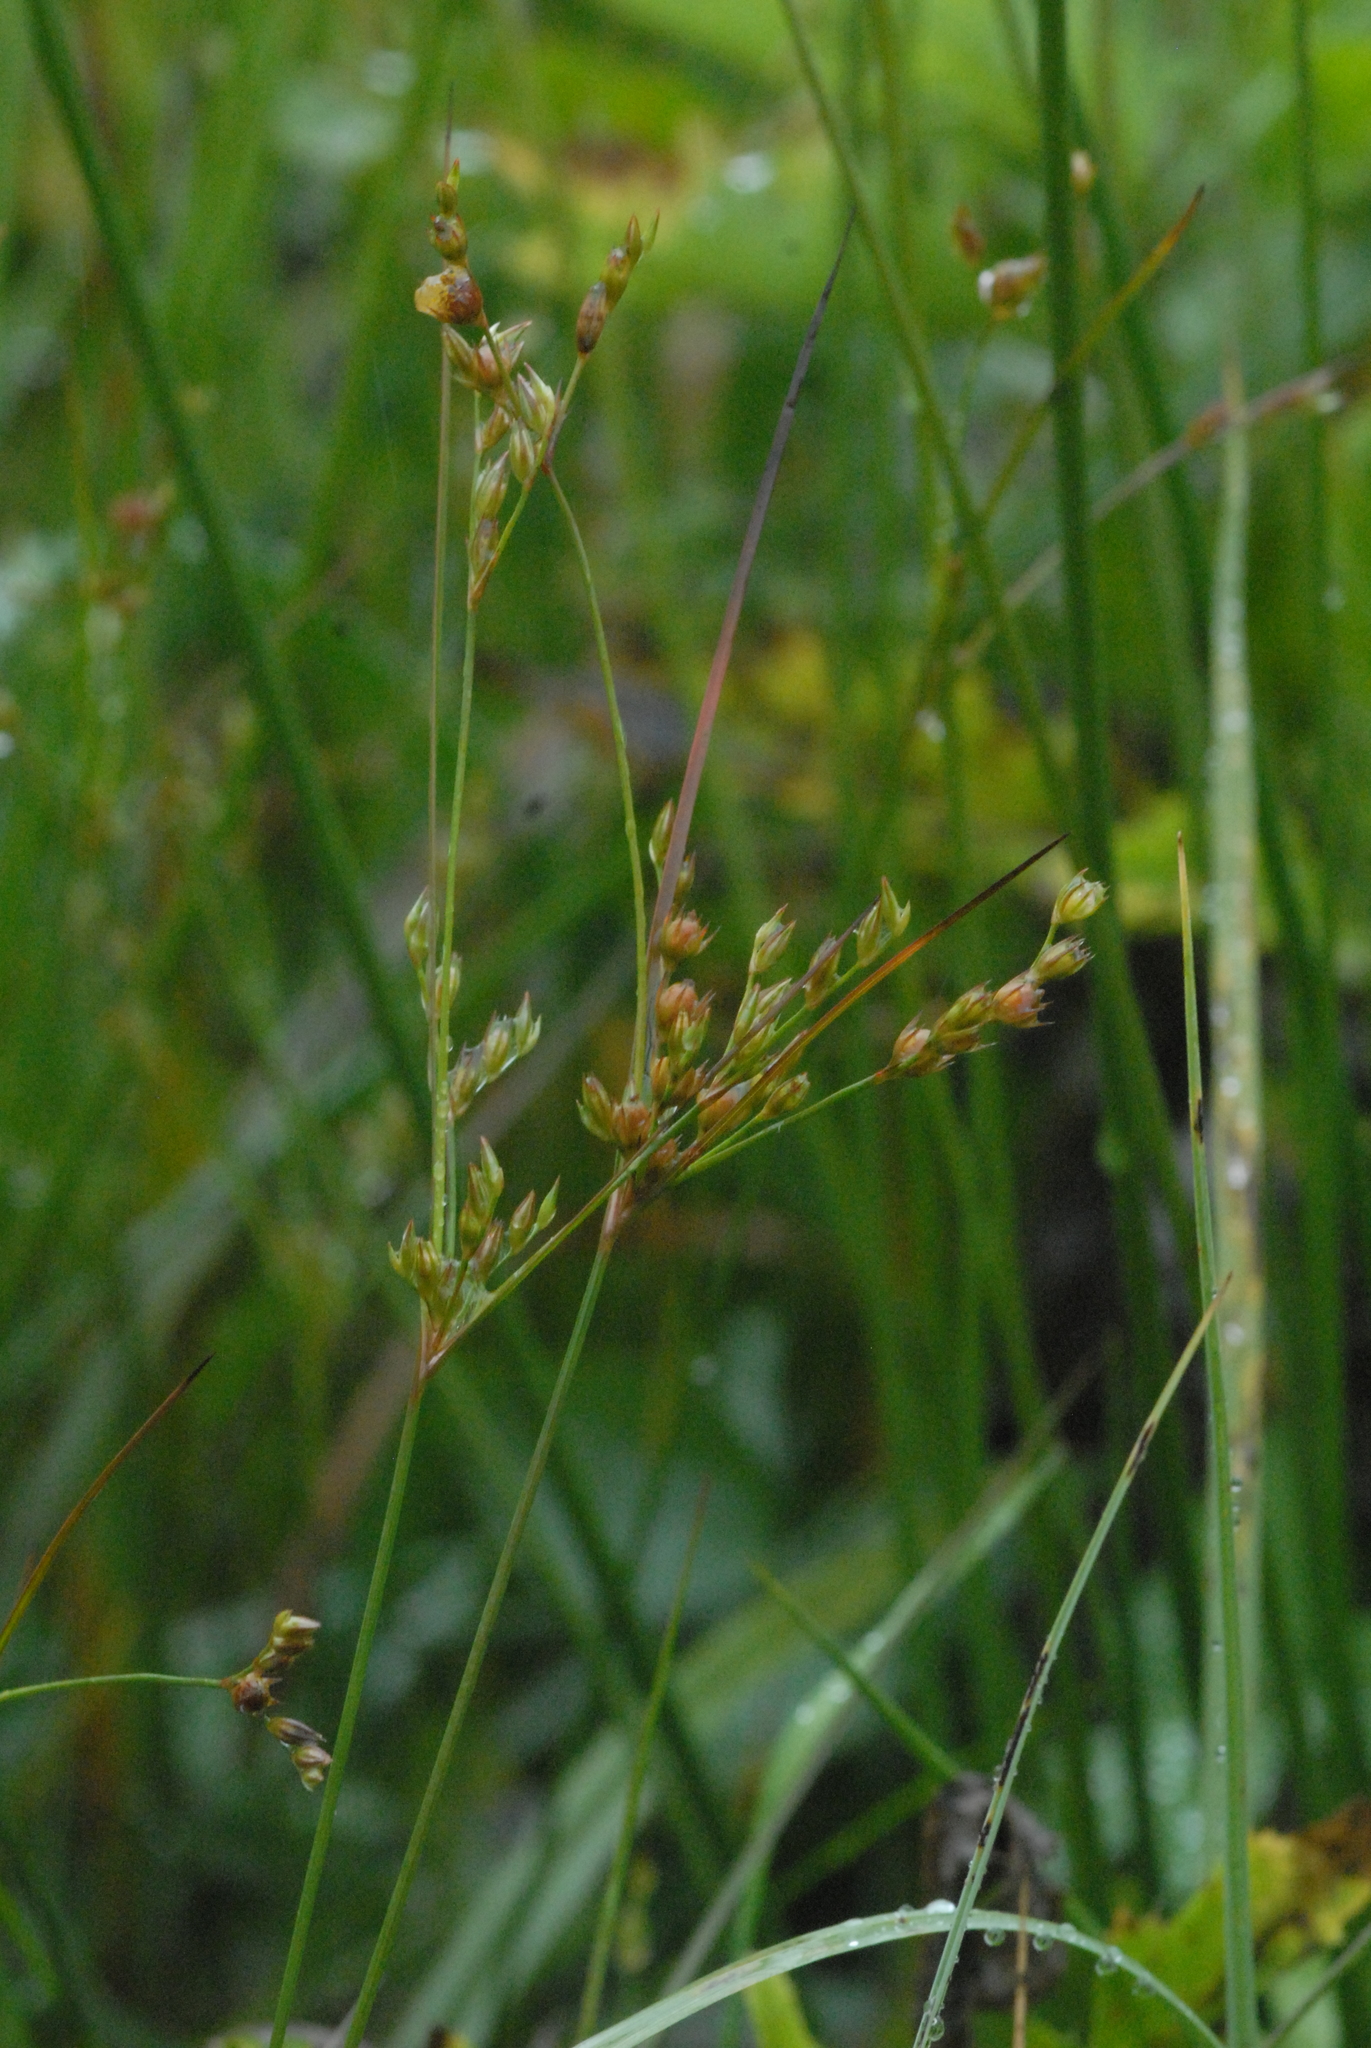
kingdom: Plantae
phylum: Tracheophyta
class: Liliopsida
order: Poales
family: Juncaceae
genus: Juncus
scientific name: Juncus tenuis
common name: Slender rush
